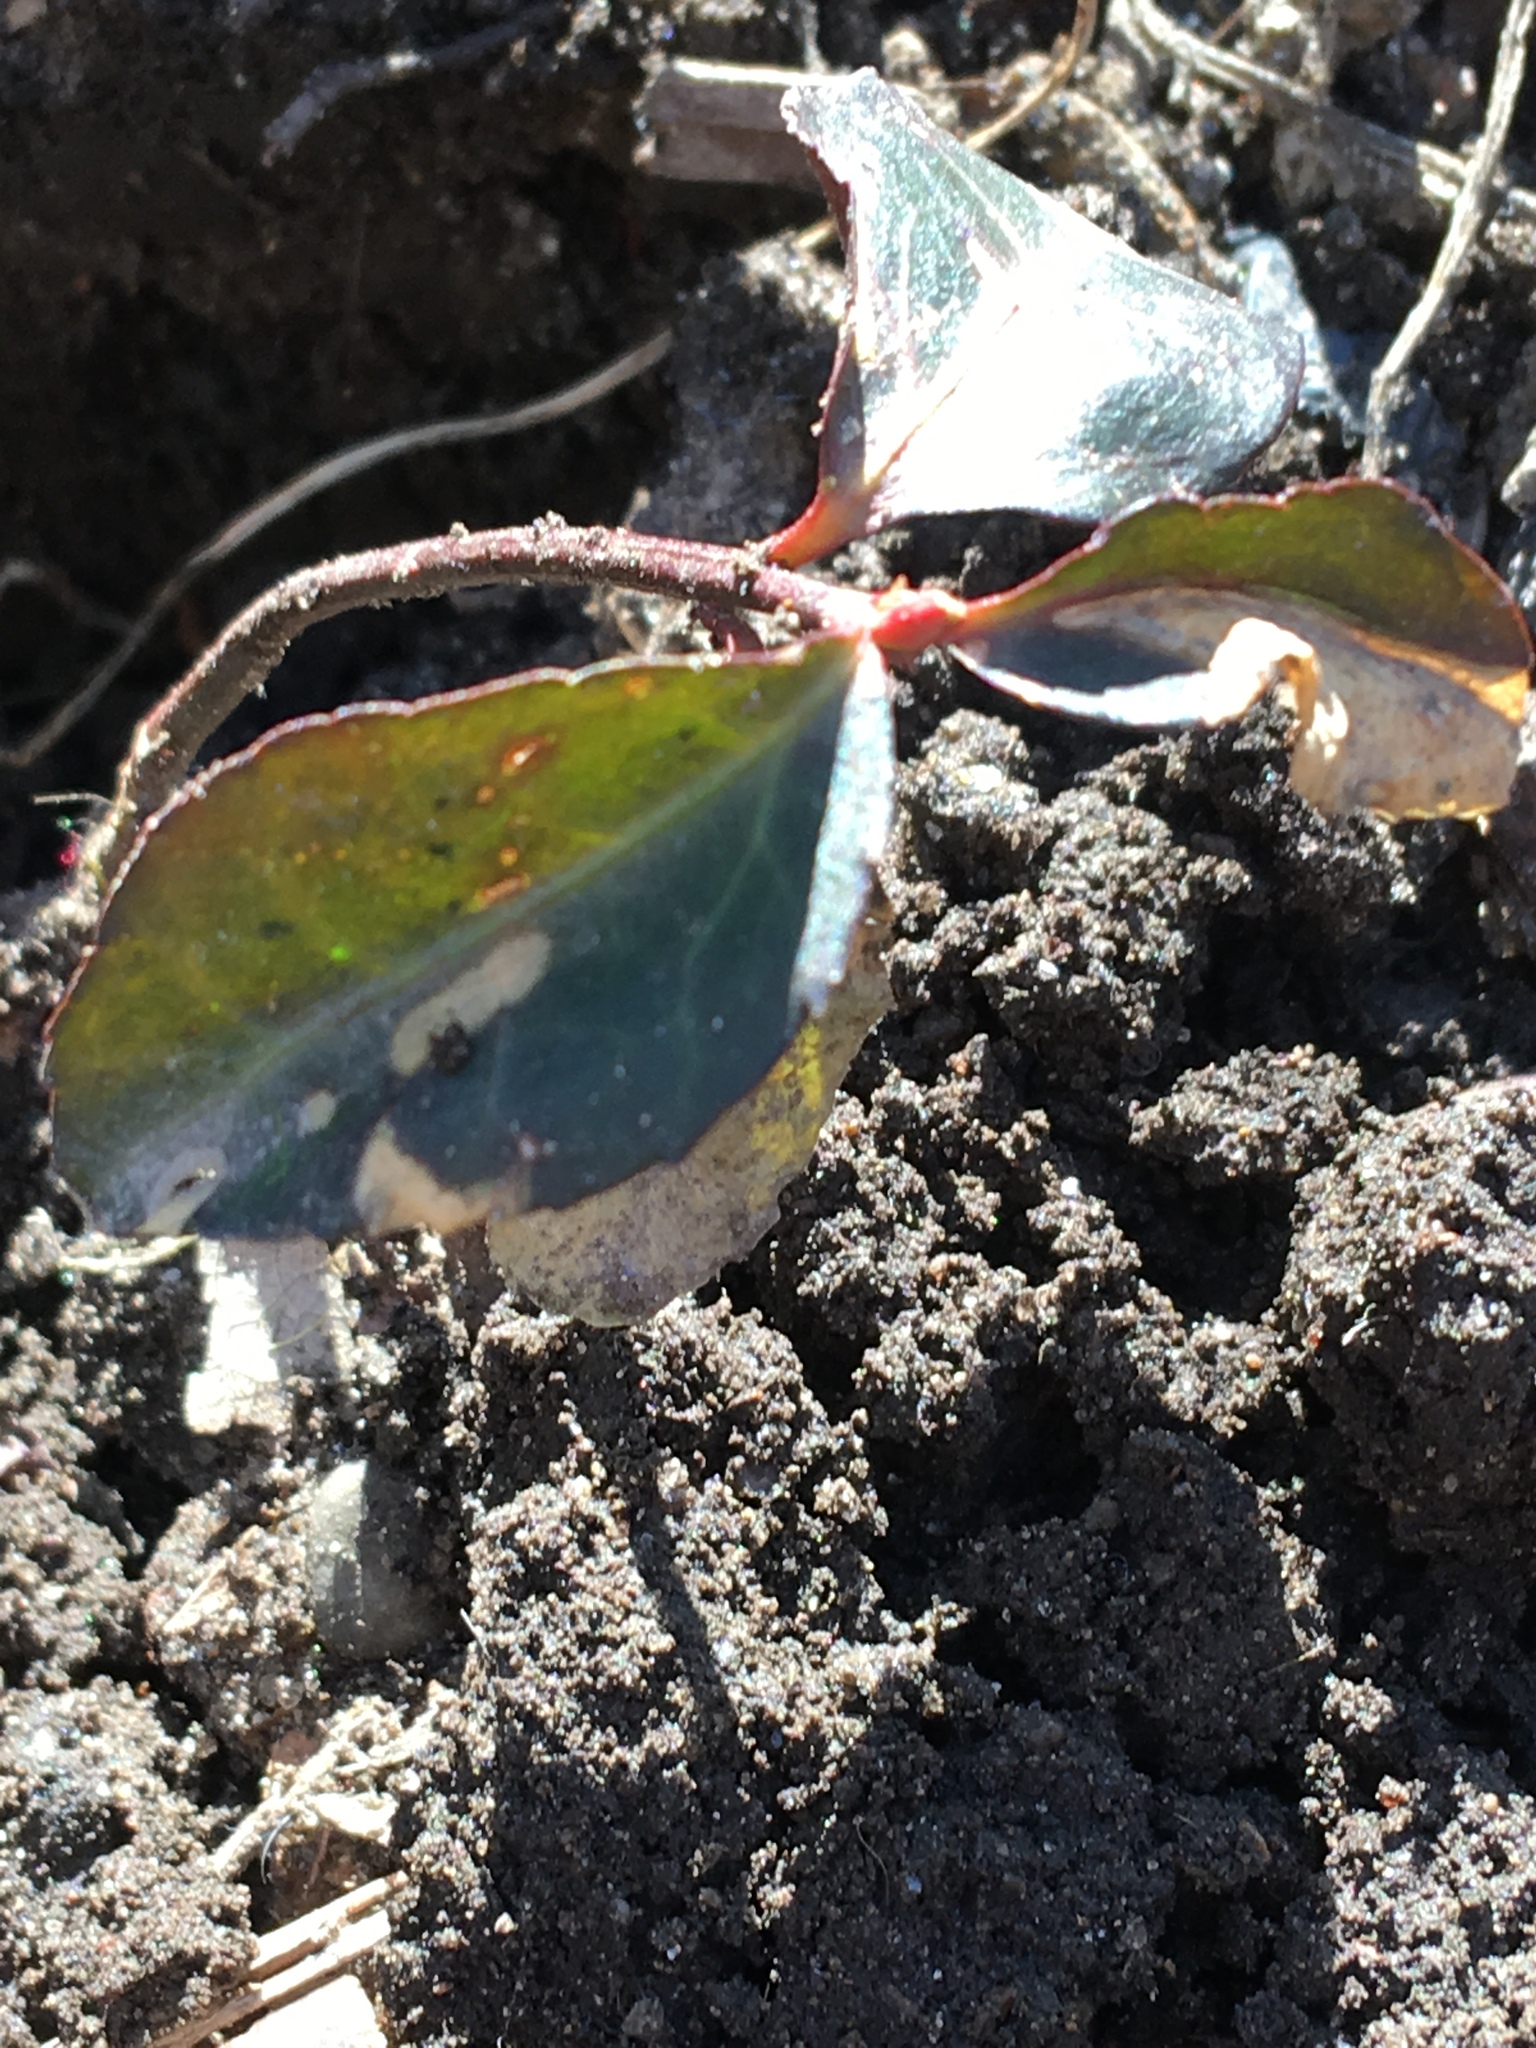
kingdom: Plantae
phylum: Tracheophyta
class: Magnoliopsida
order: Celastrales
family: Celastraceae
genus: Euonymus
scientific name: Euonymus fortunei
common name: Climbing euonymus
